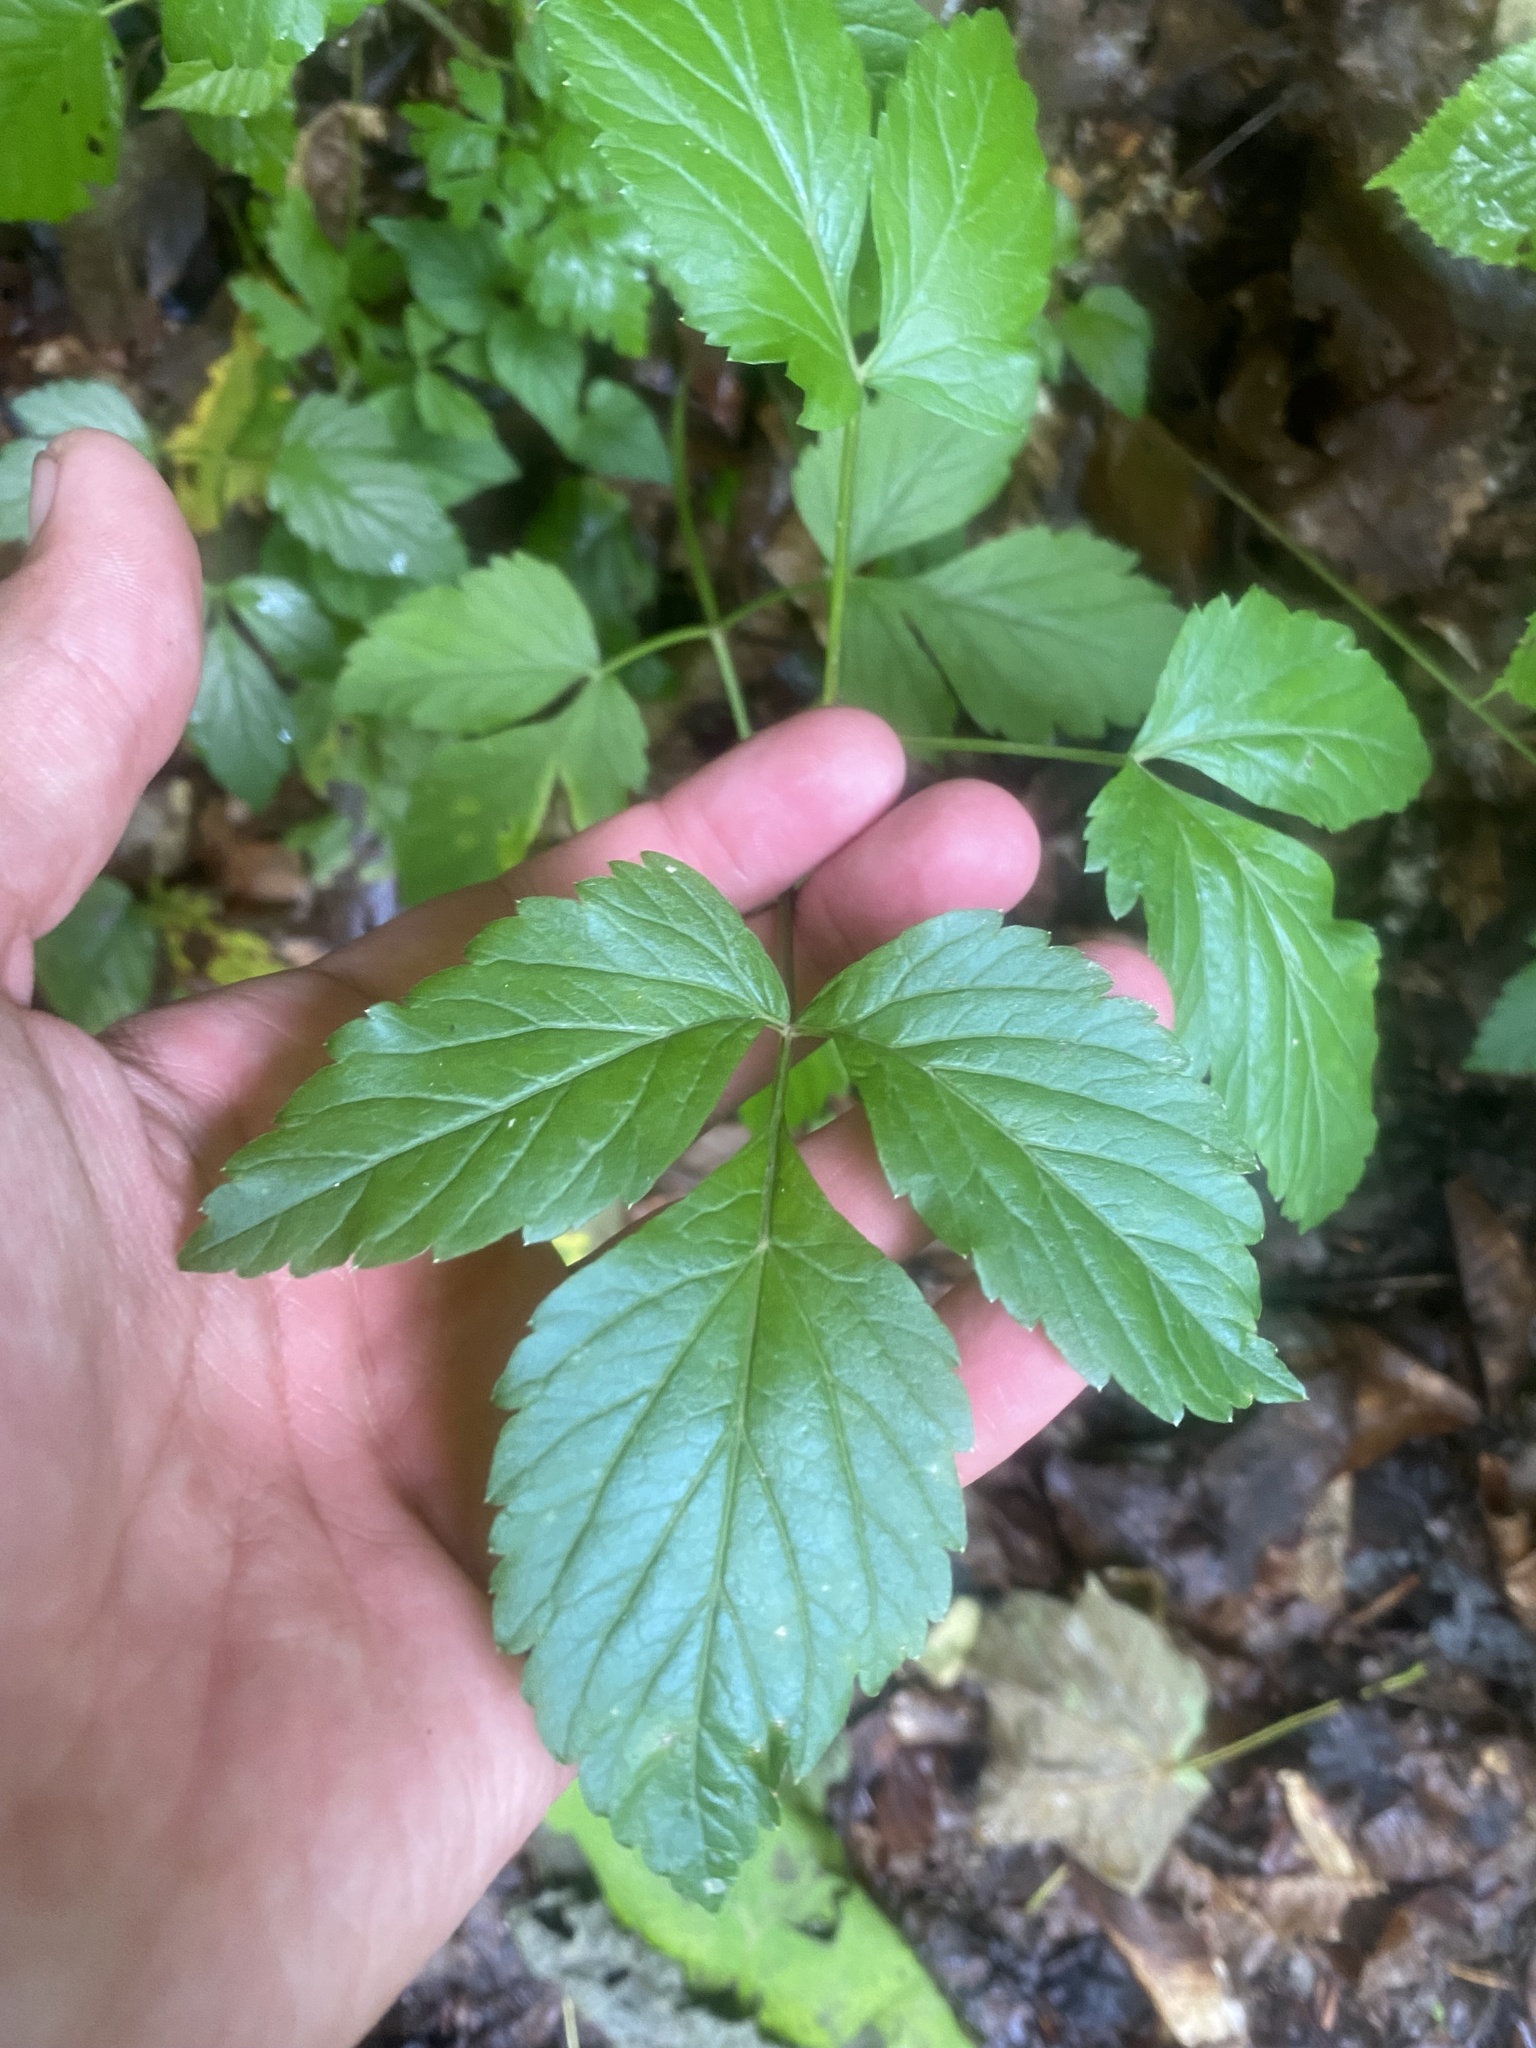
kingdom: Plantae
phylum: Tracheophyta
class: Magnoliopsida
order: Apiales
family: Apiaceae
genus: Rhizomatophora
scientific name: Rhizomatophora aegopodioides
